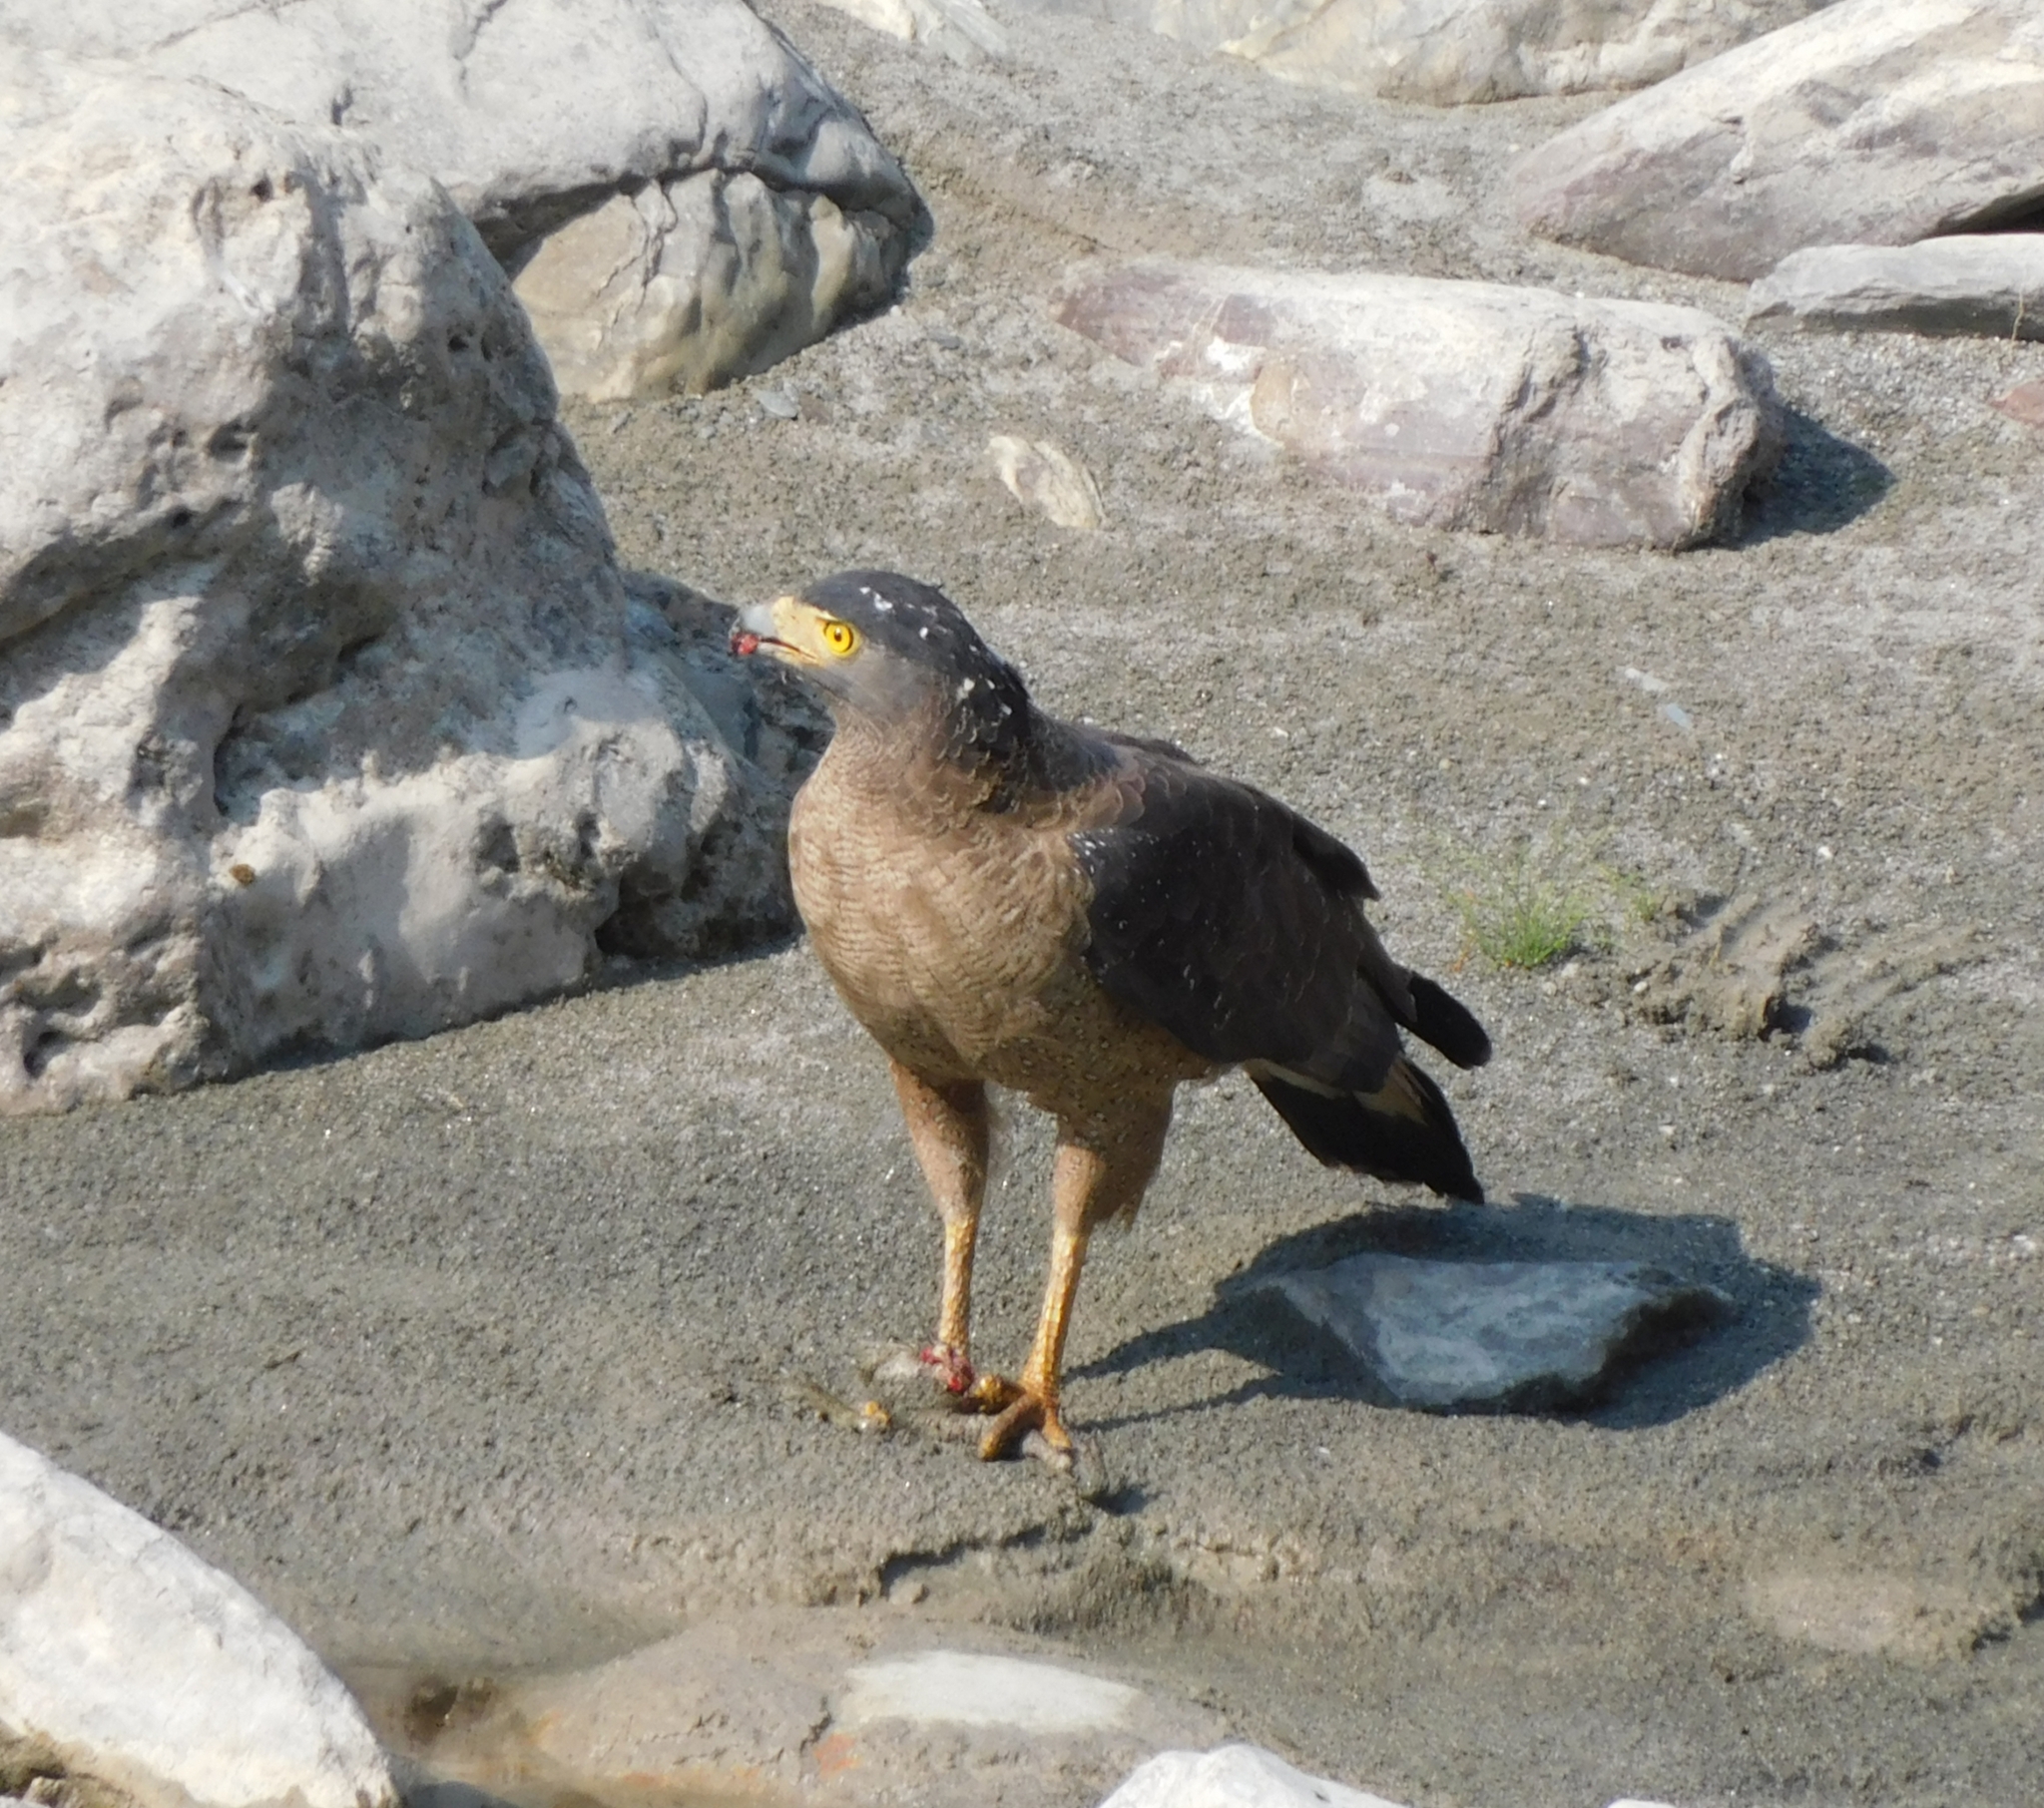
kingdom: Animalia
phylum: Chordata
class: Aves
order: Accipitriformes
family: Accipitridae
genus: Spilornis
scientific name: Spilornis cheela
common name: Crested serpent eagle
